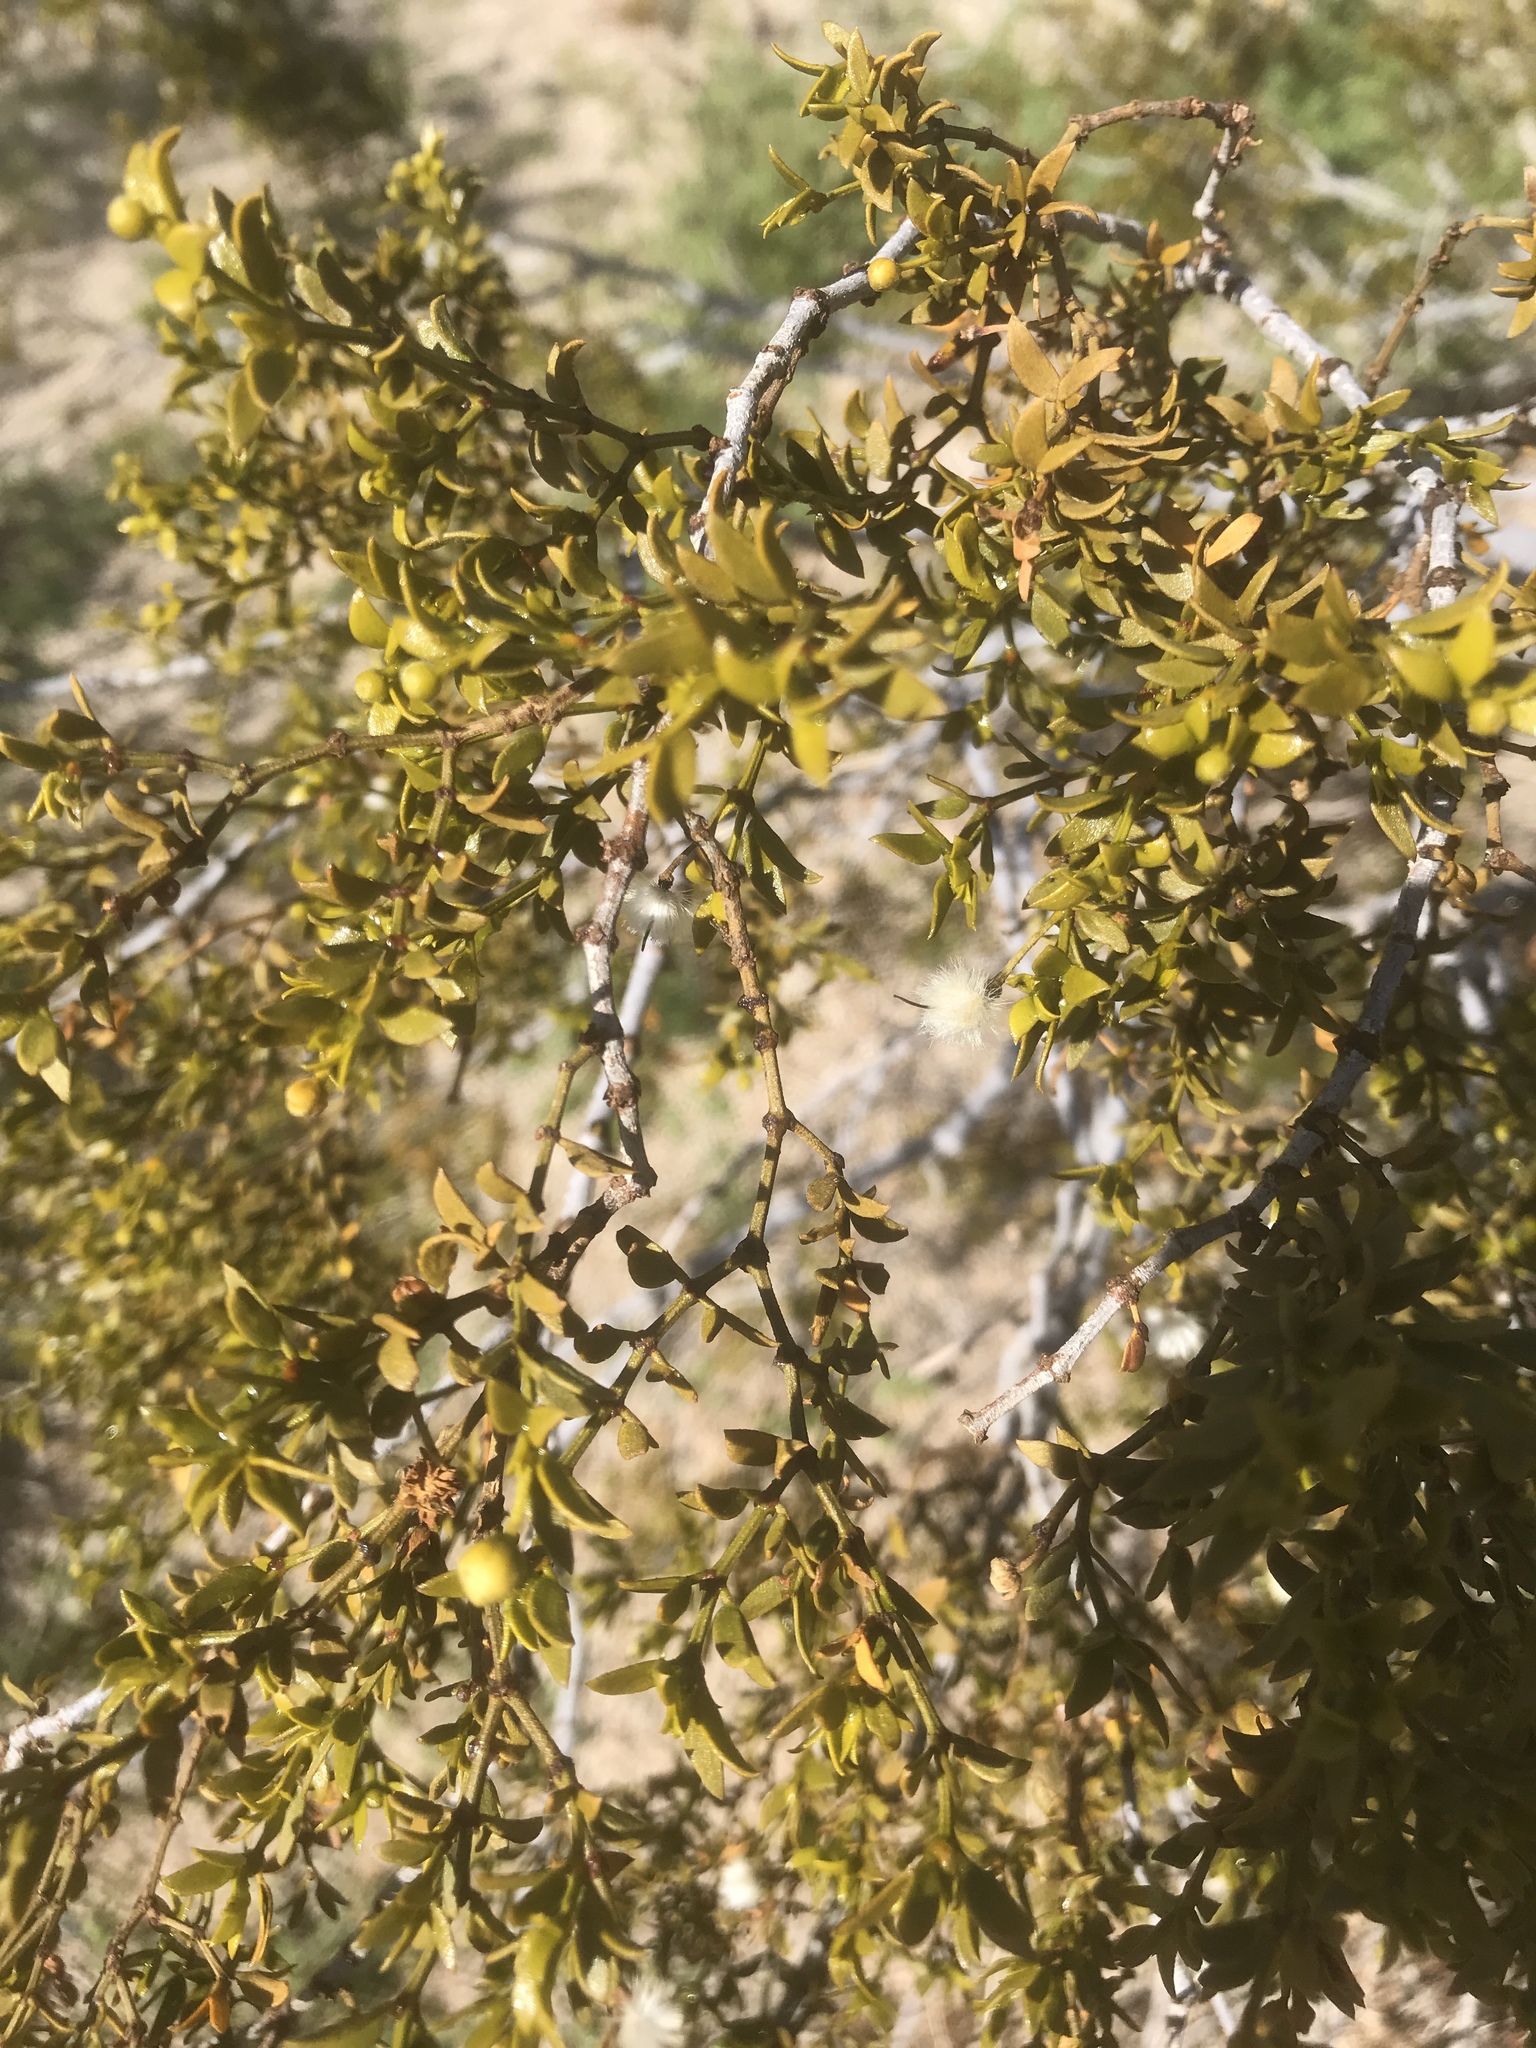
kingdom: Plantae
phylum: Tracheophyta
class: Magnoliopsida
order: Zygophyllales
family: Zygophyllaceae
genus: Larrea
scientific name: Larrea tridentata
